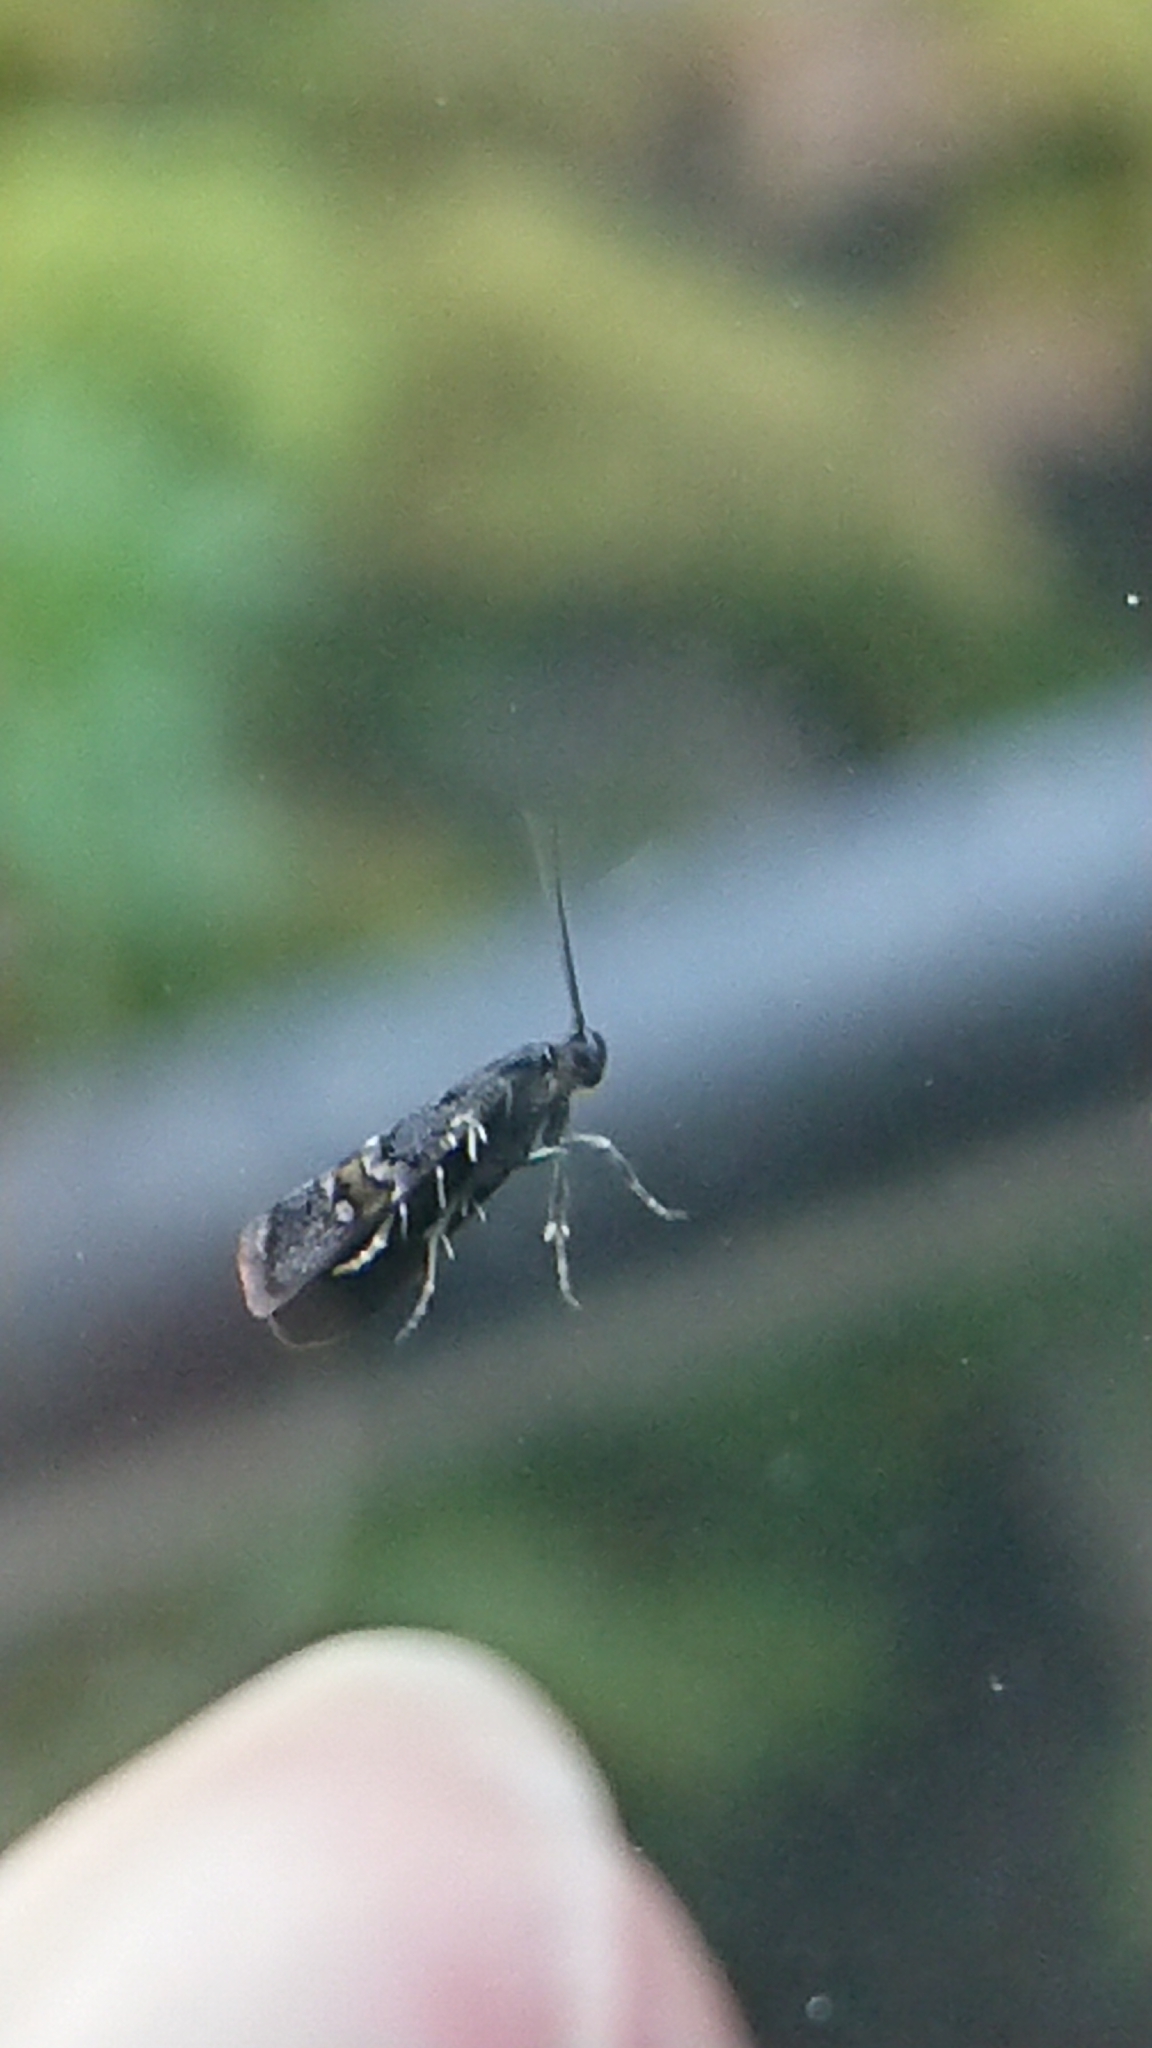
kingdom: Animalia
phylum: Arthropoda
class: Insecta
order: Lepidoptera
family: Oecophoridae
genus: Hierodoris
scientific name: Hierodoris torrida
